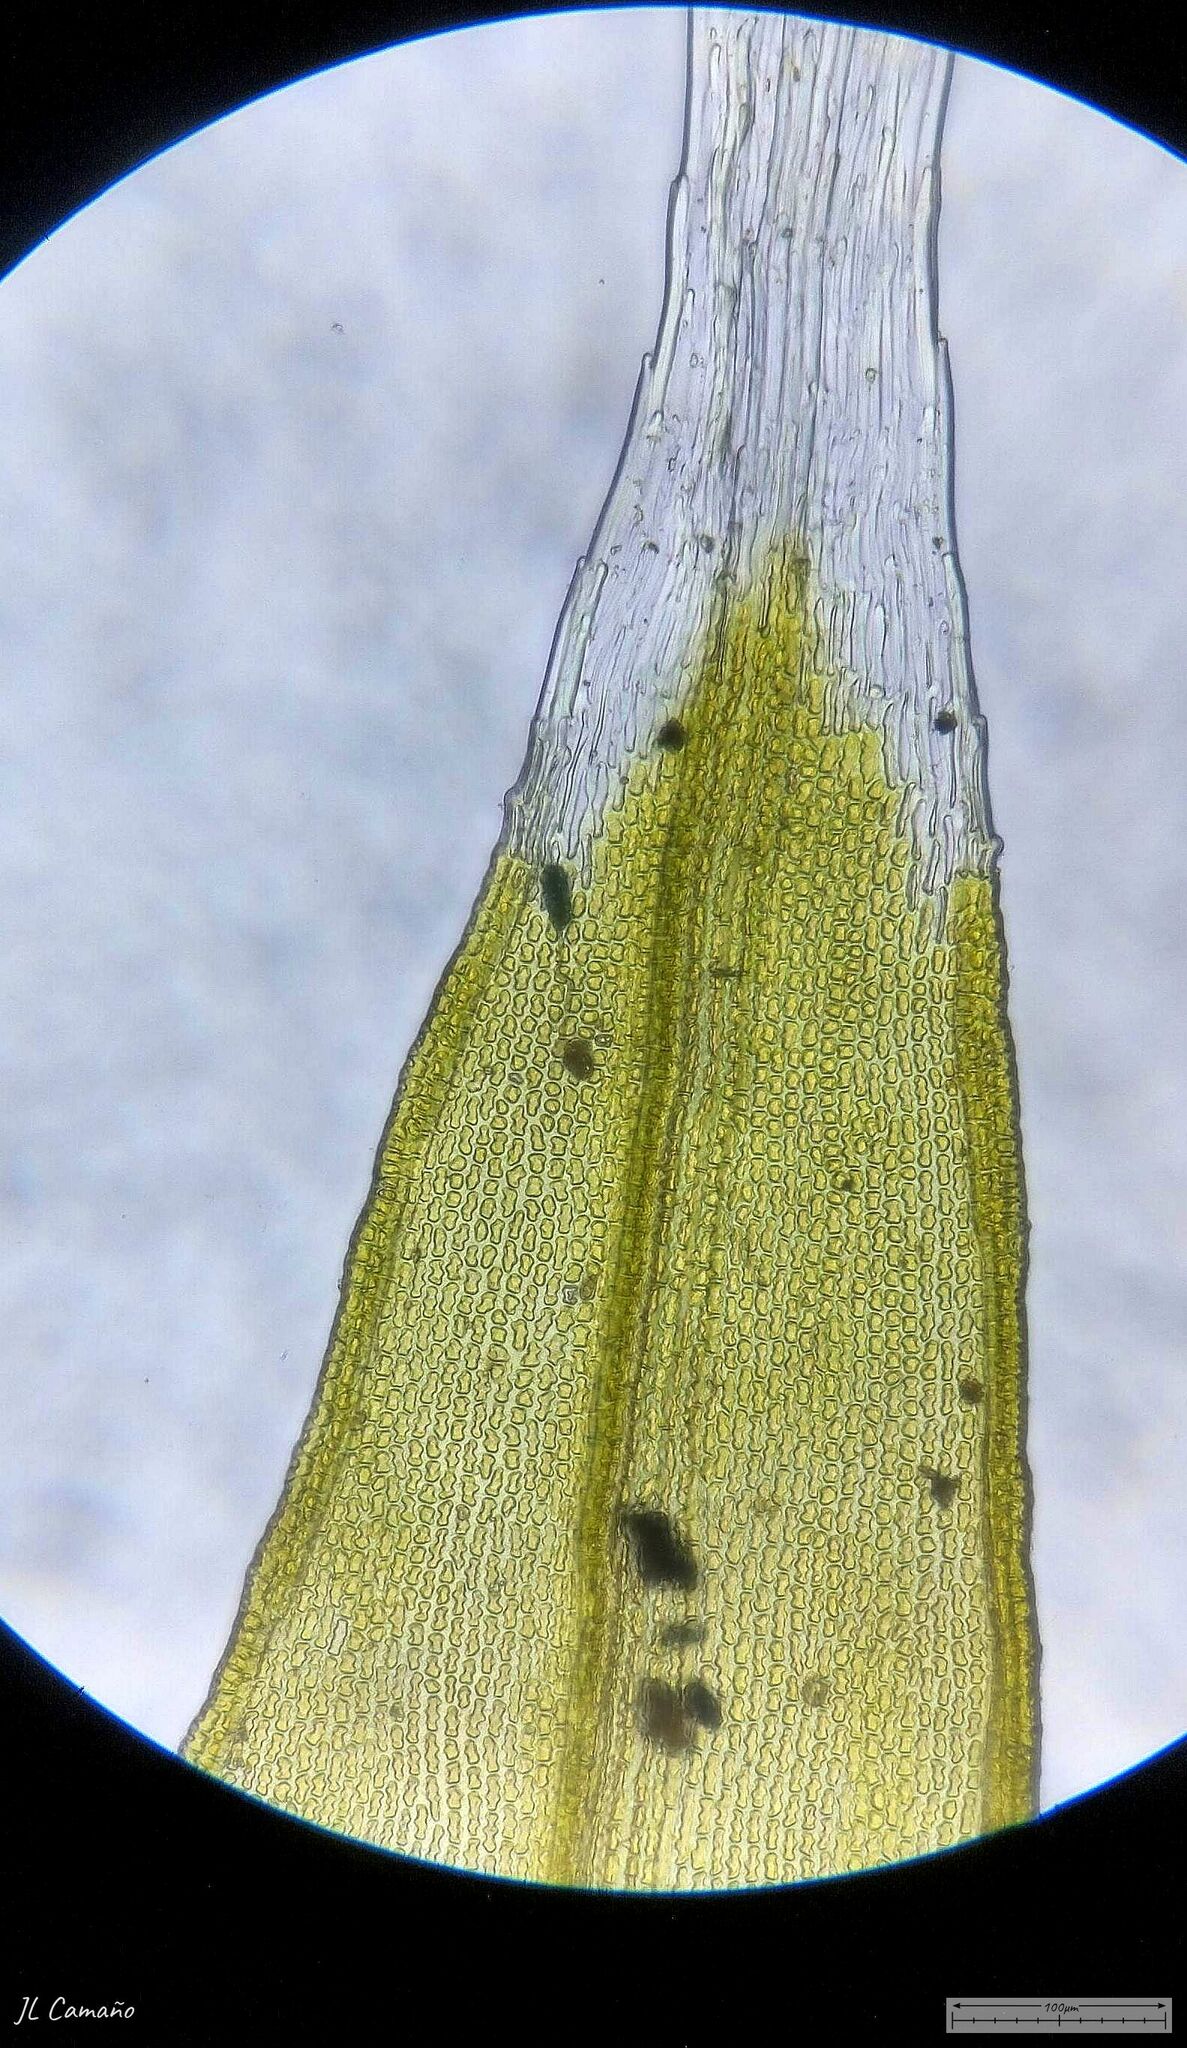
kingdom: Plantae
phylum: Bryophyta
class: Bryopsida
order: Grimmiales
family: Grimmiaceae
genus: Bucklandiella
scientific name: Bucklandiella heterosticha
